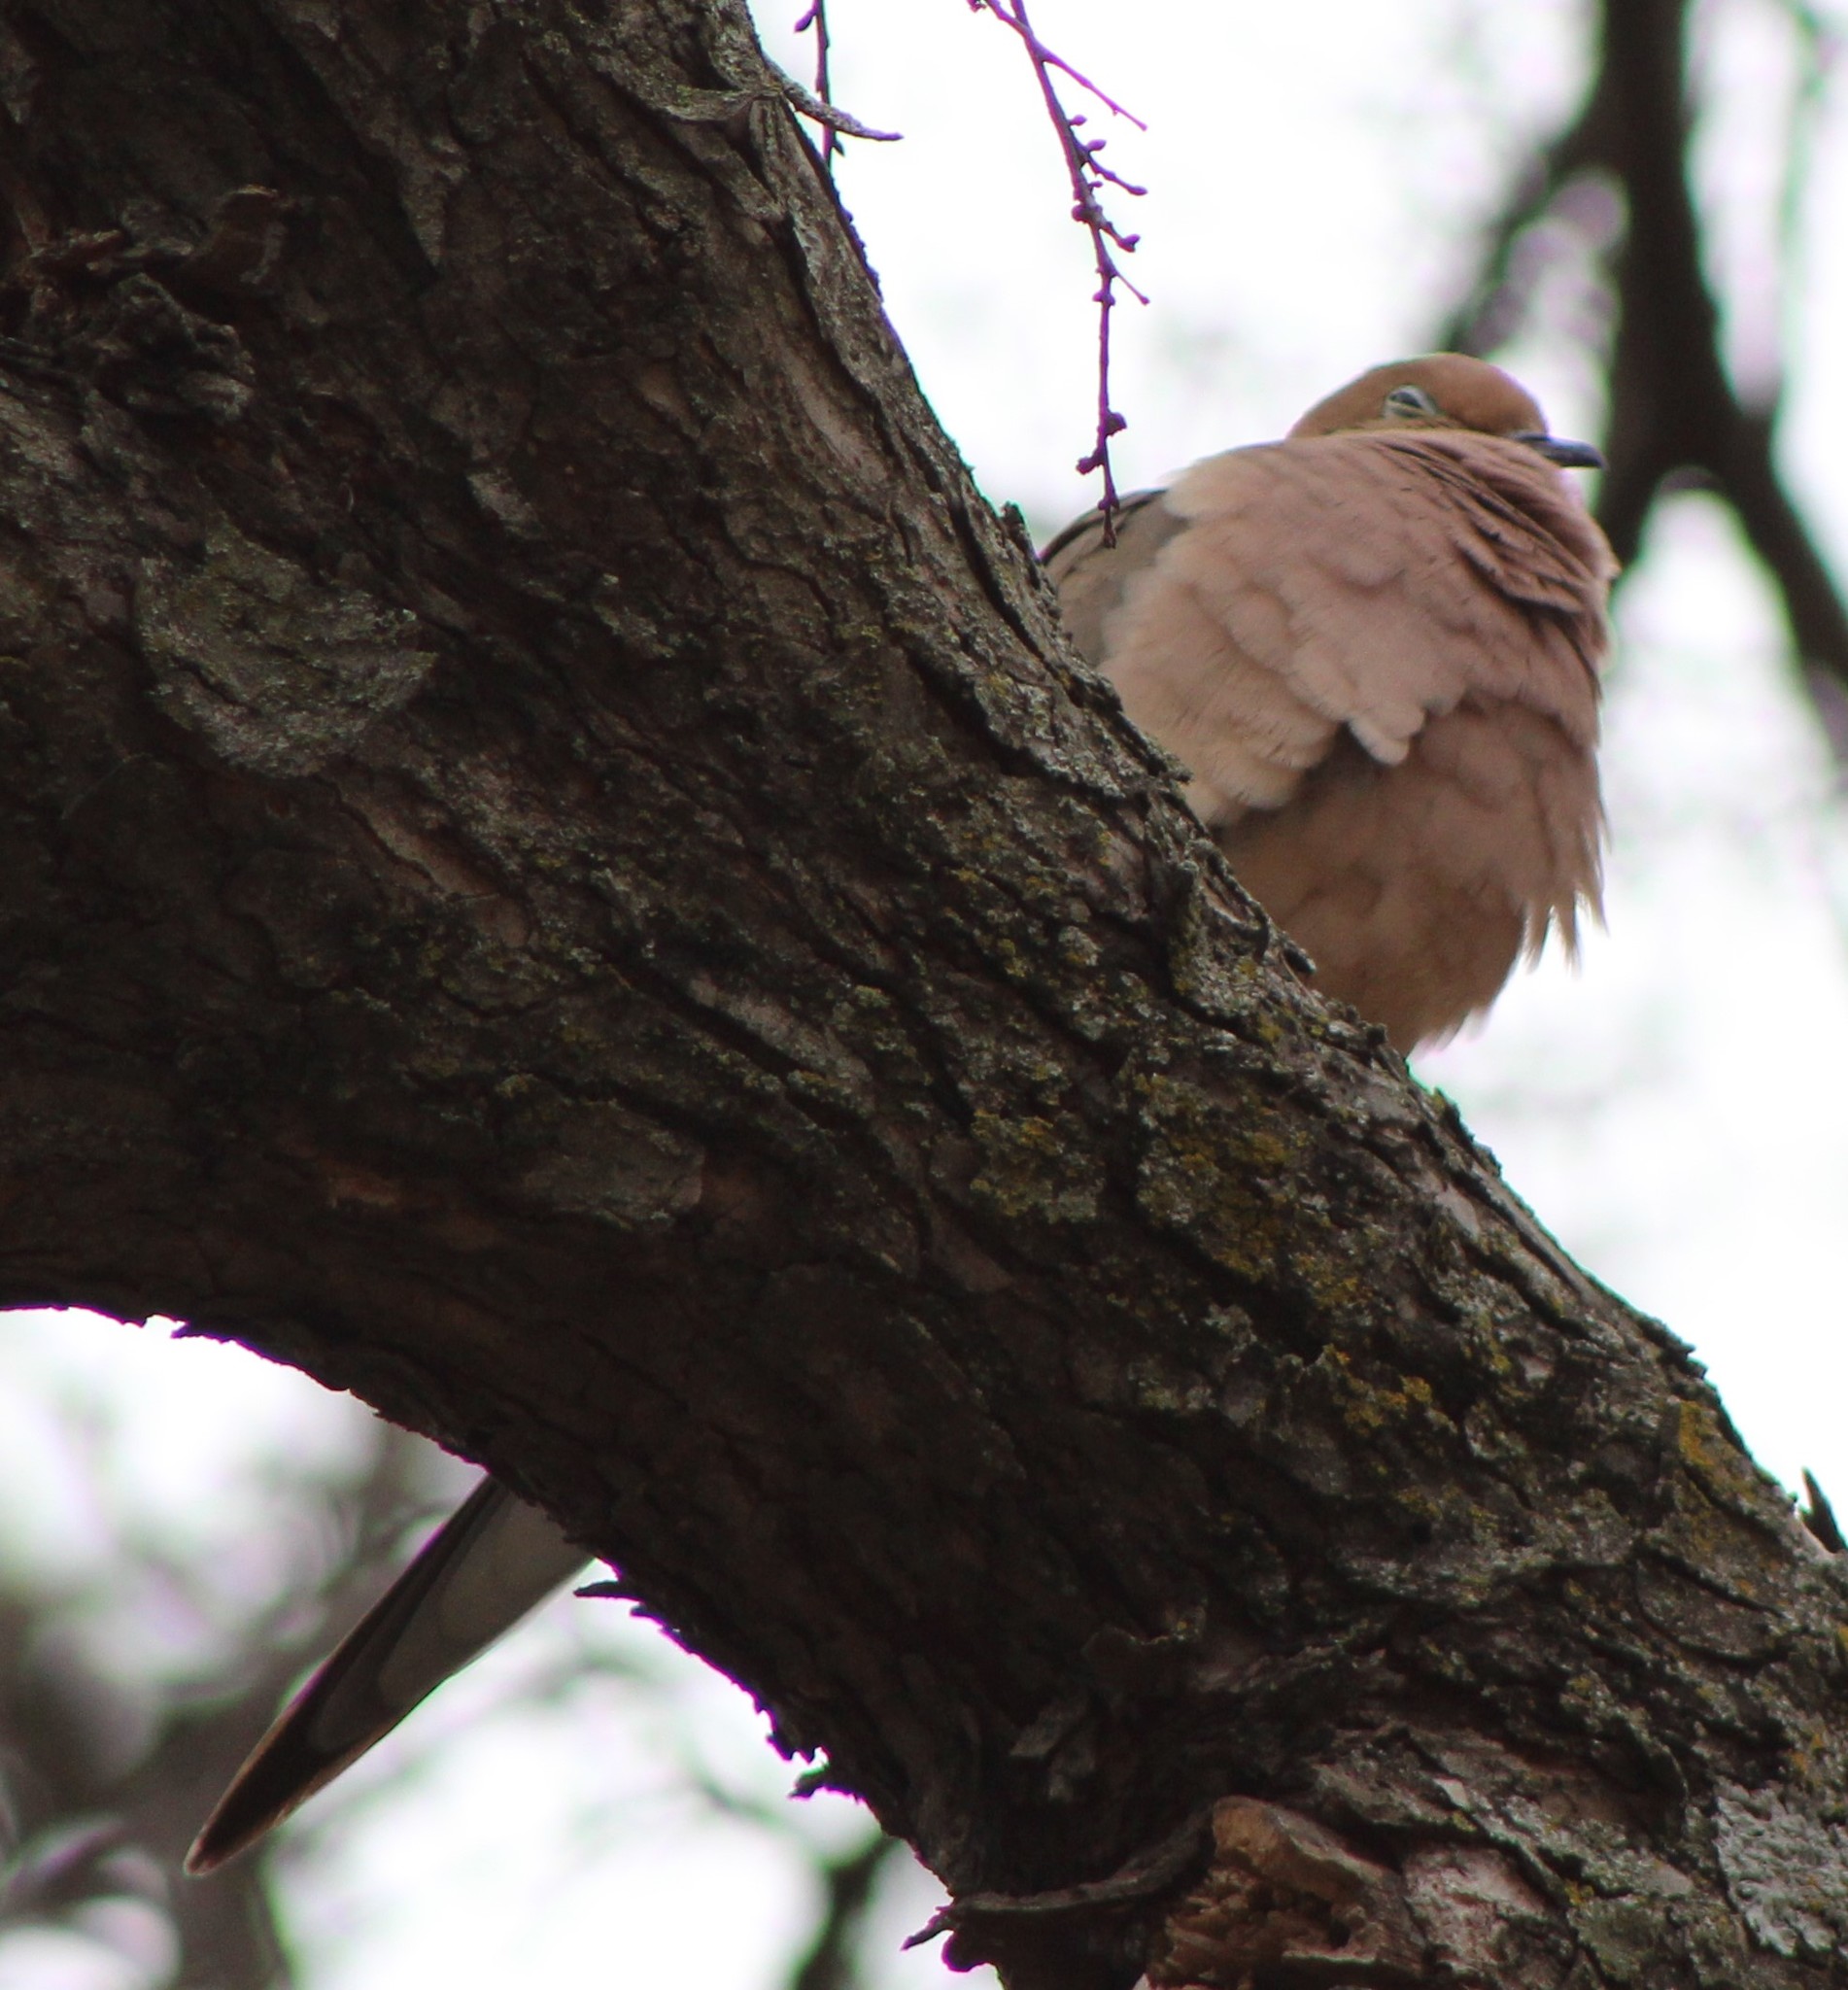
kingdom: Animalia
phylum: Chordata
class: Aves
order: Columbiformes
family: Columbidae
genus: Zenaida
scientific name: Zenaida macroura
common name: Mourning dove
